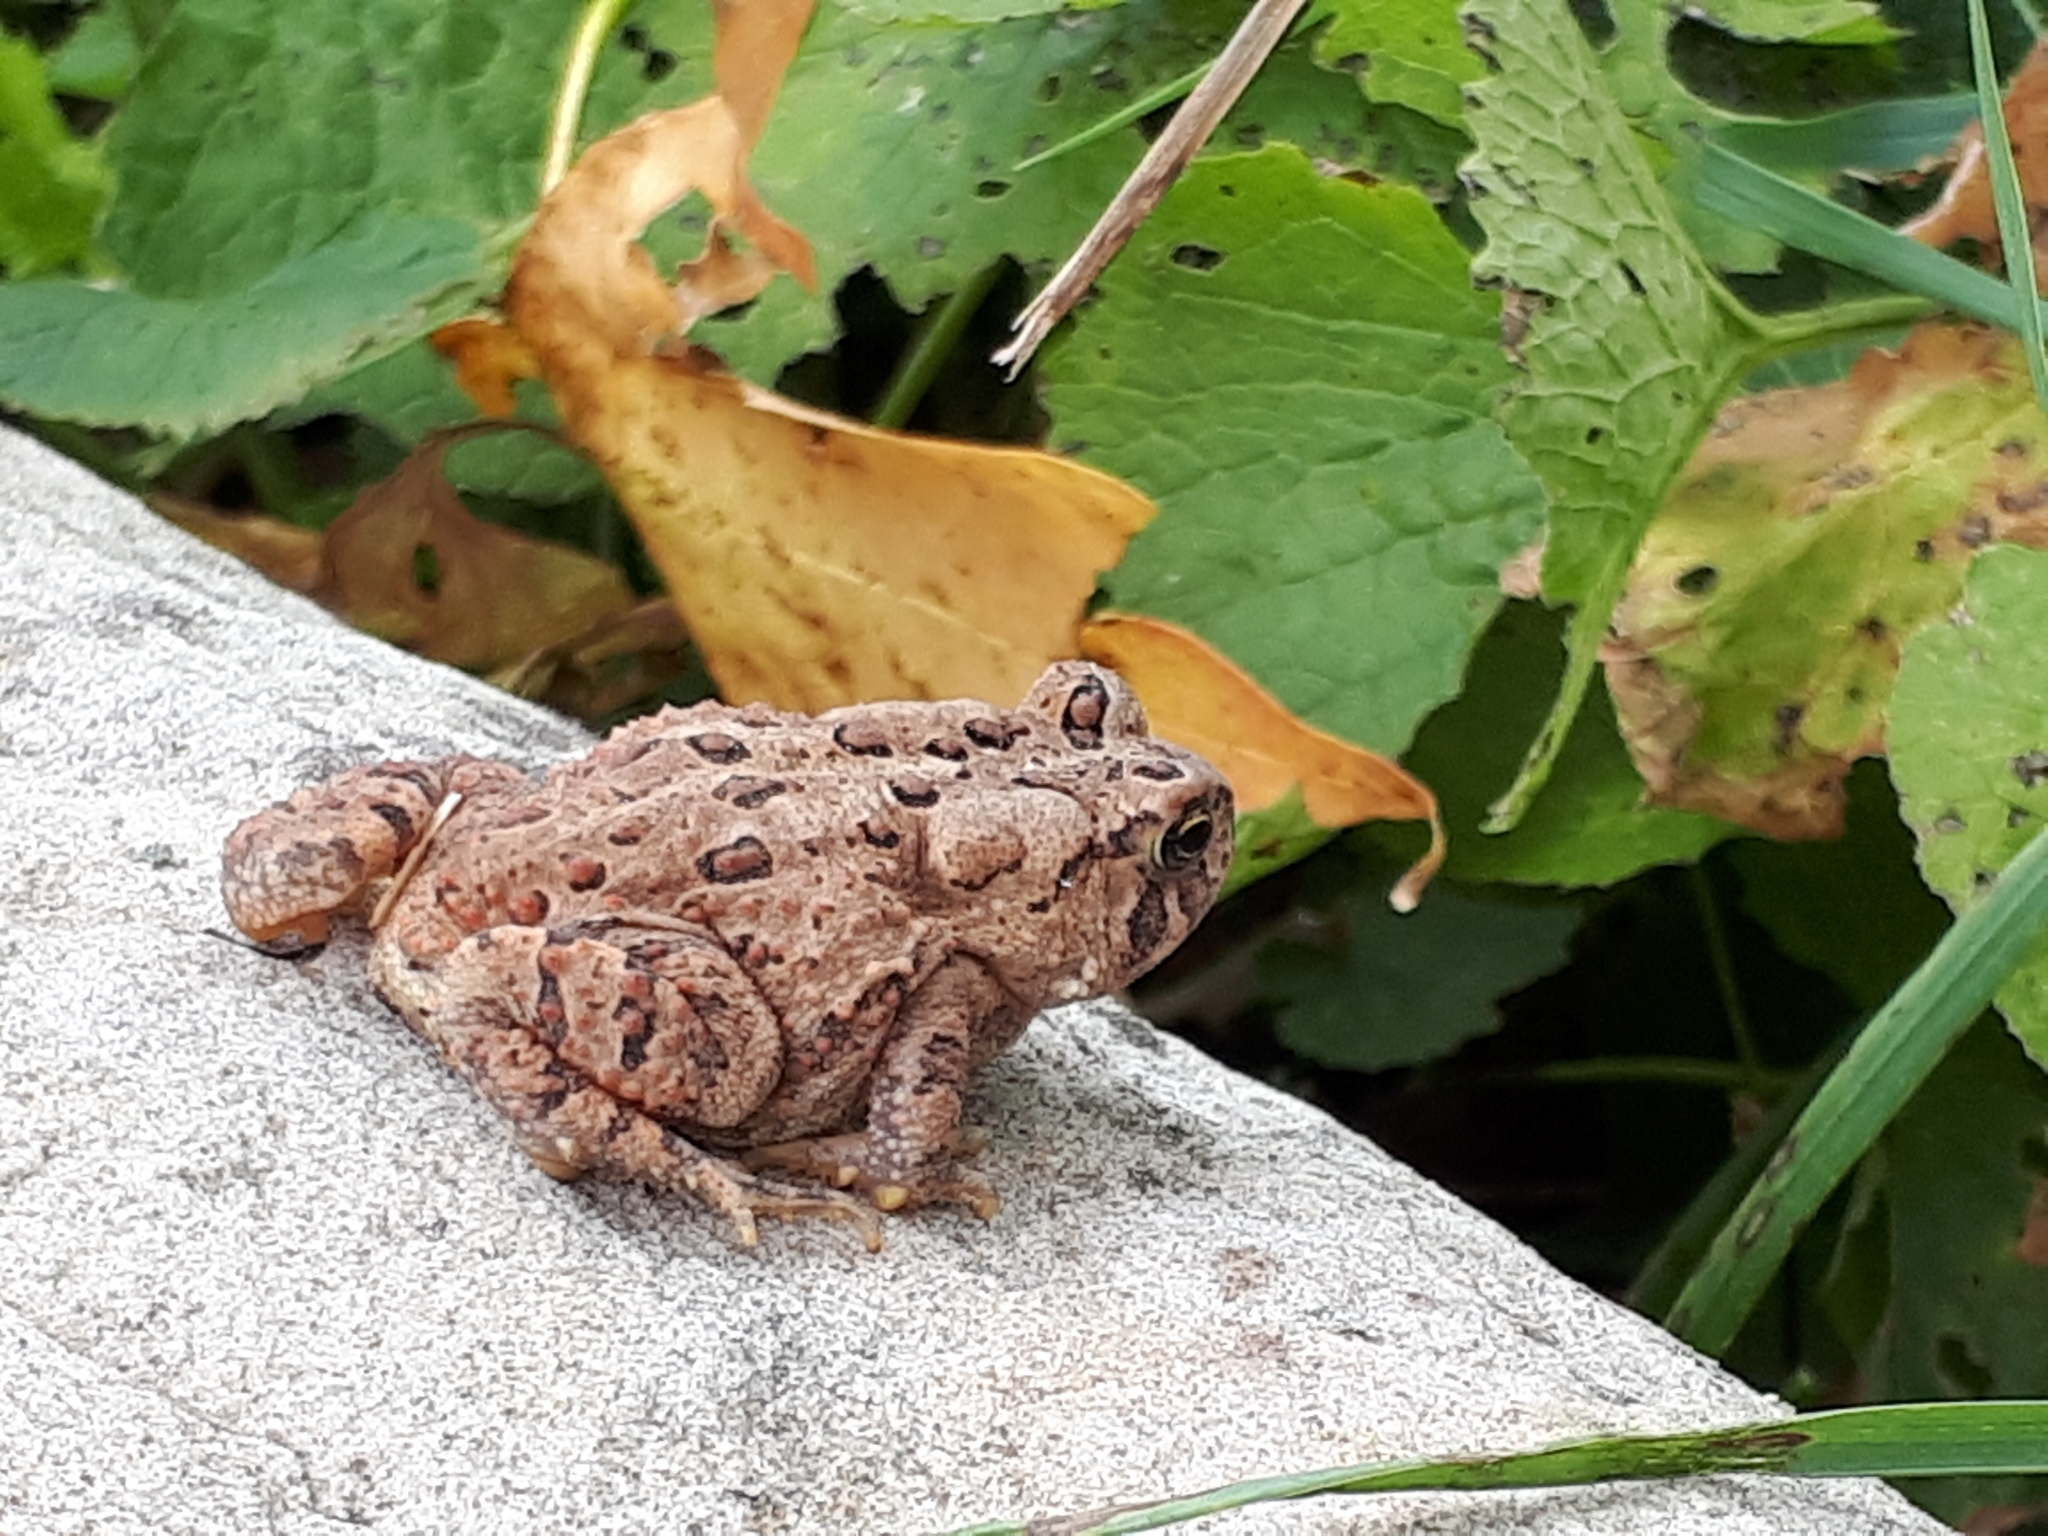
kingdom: Animalia
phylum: Chordata
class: Amphibia
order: Anura
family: Bufonidae
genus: Anaxyrus
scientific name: Anaxyrus americanus
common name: American toad
